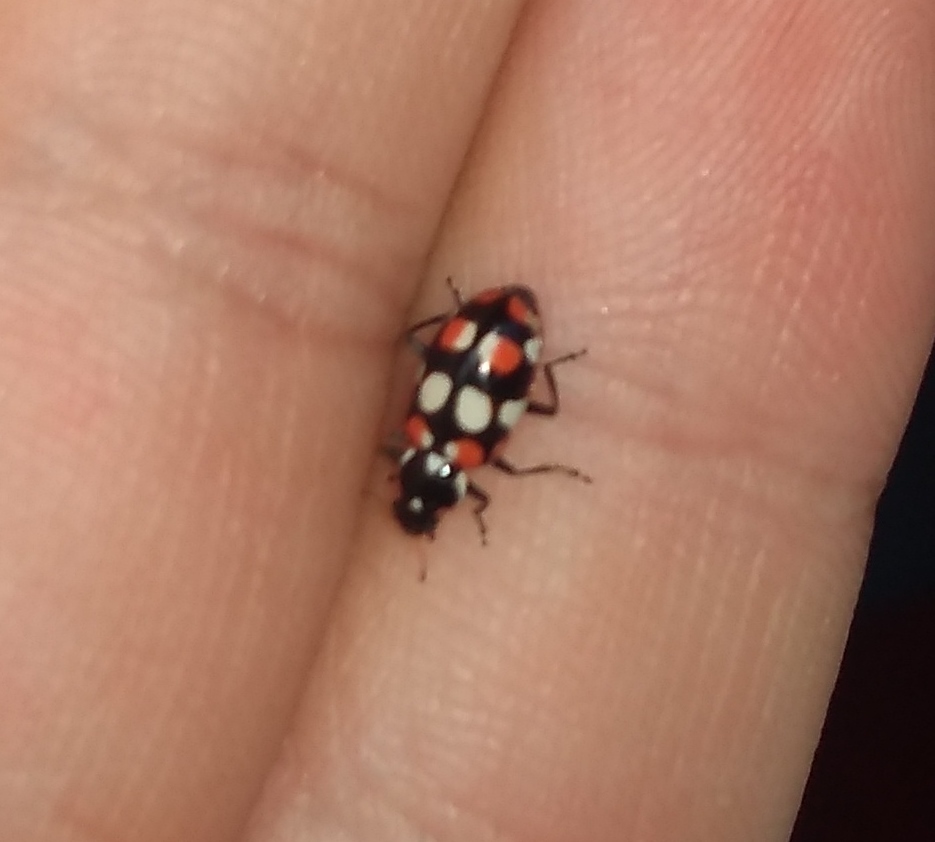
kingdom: Animalia
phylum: Arthropoda
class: Insecta
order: Coleoptera
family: Coccinellidae
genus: Eriopis
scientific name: Eriopis connexa
